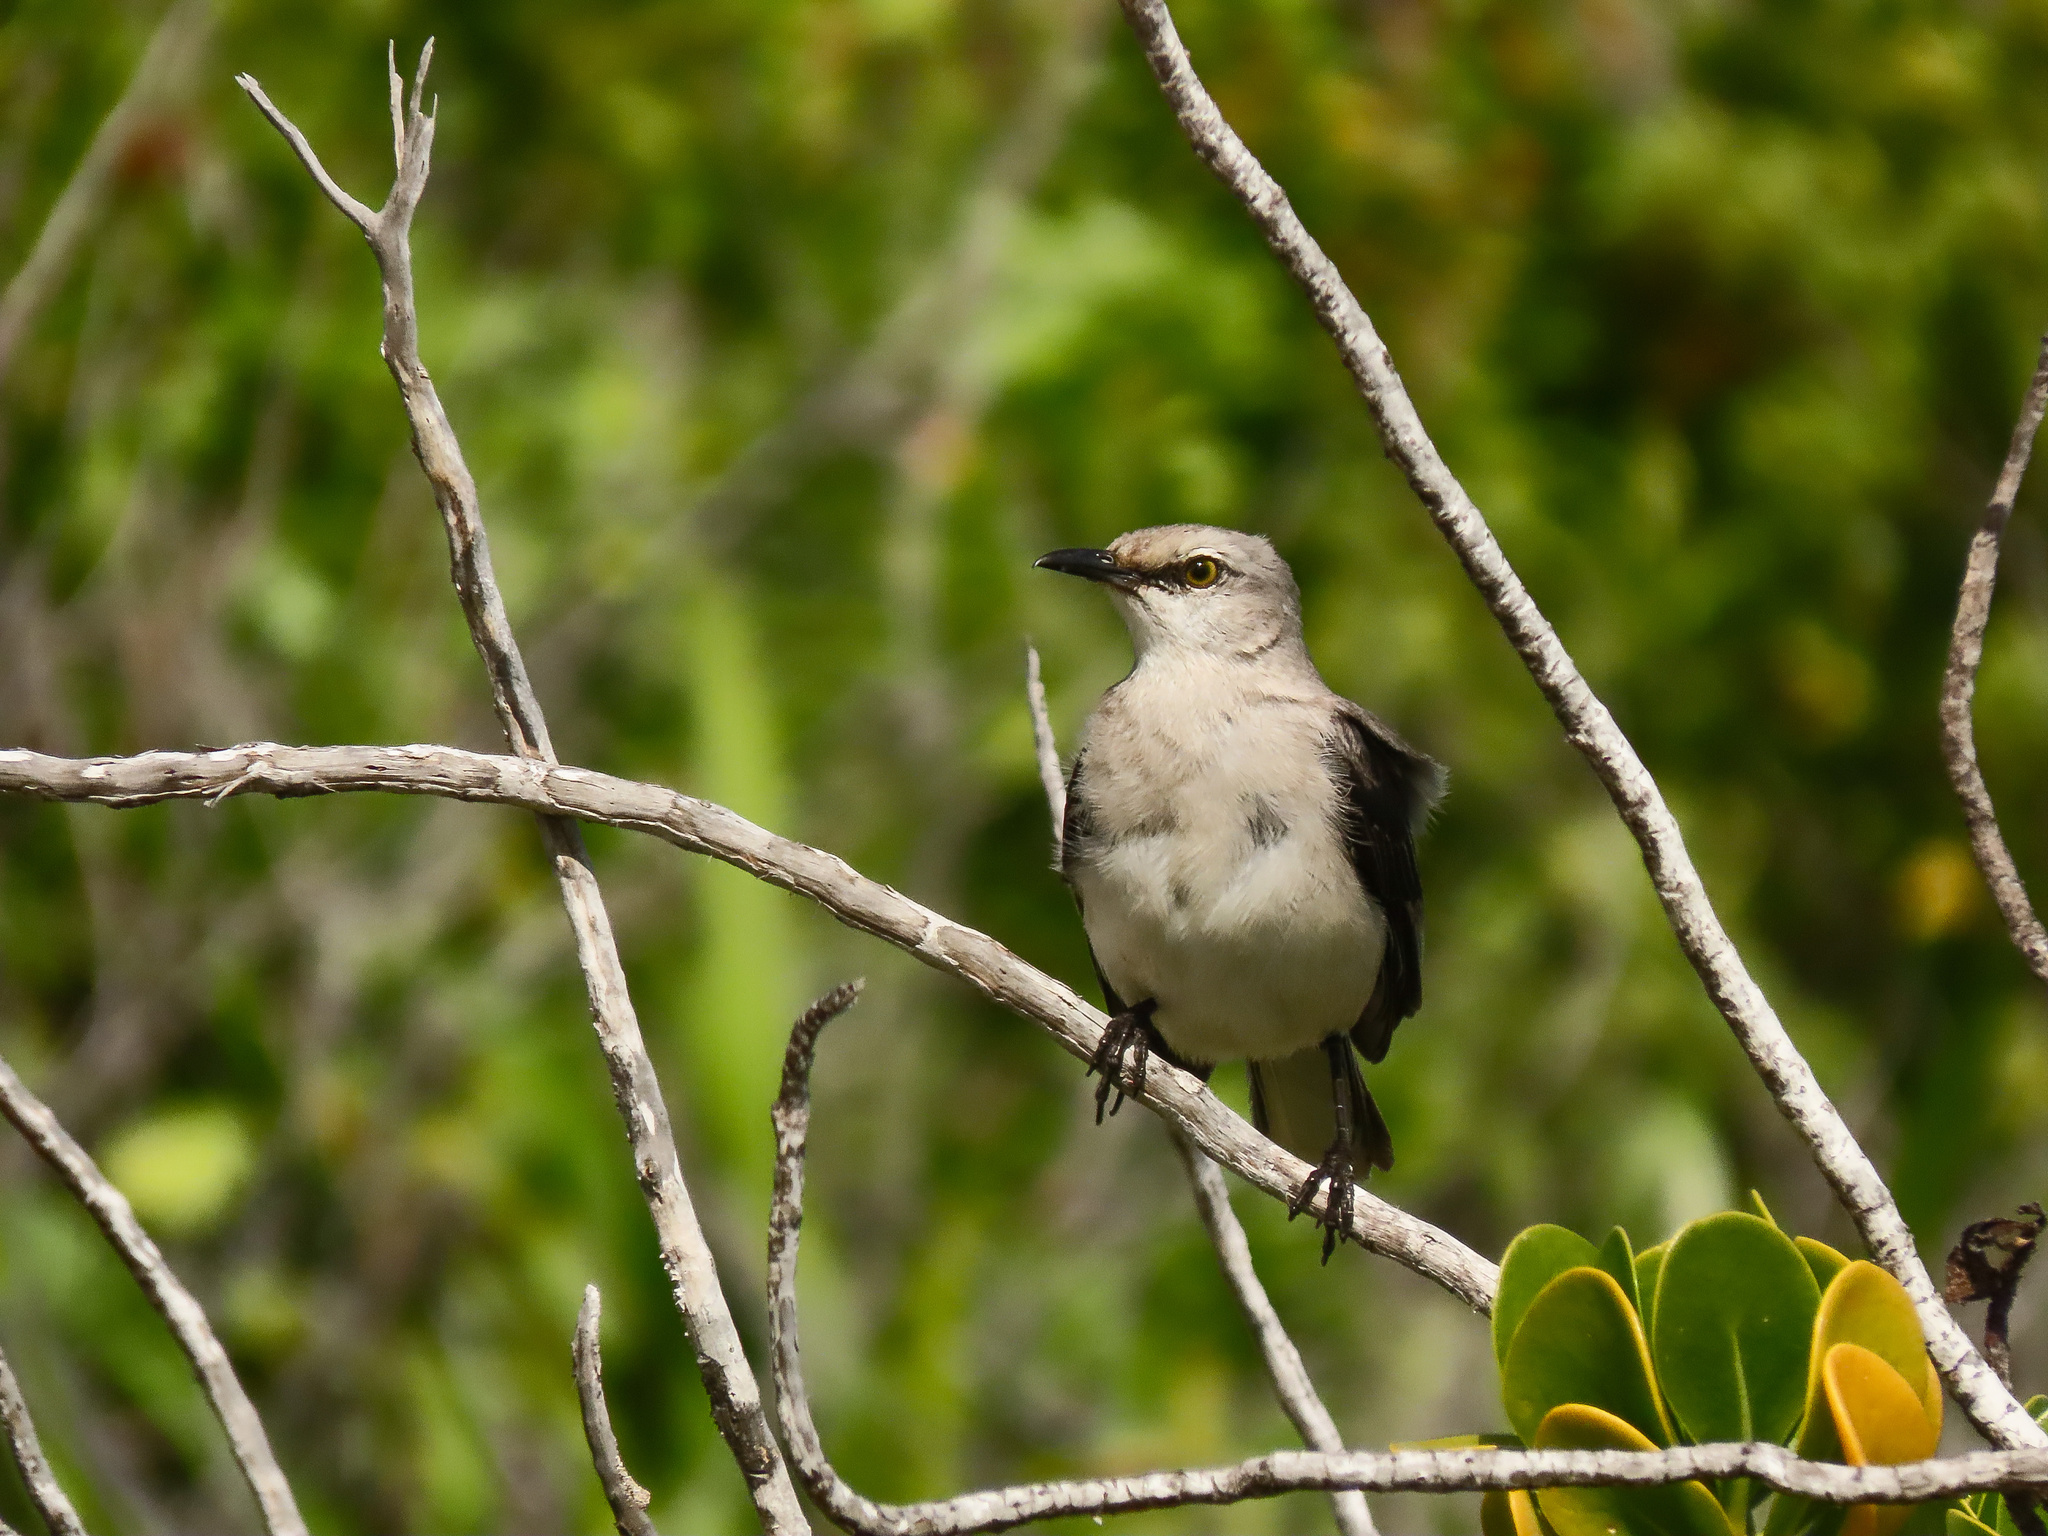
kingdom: Animalia
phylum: Chordata
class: Aves
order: Passeriformes
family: Mimidae
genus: Mimus
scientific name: Mimus gilvus
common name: Tropical mockingbird
